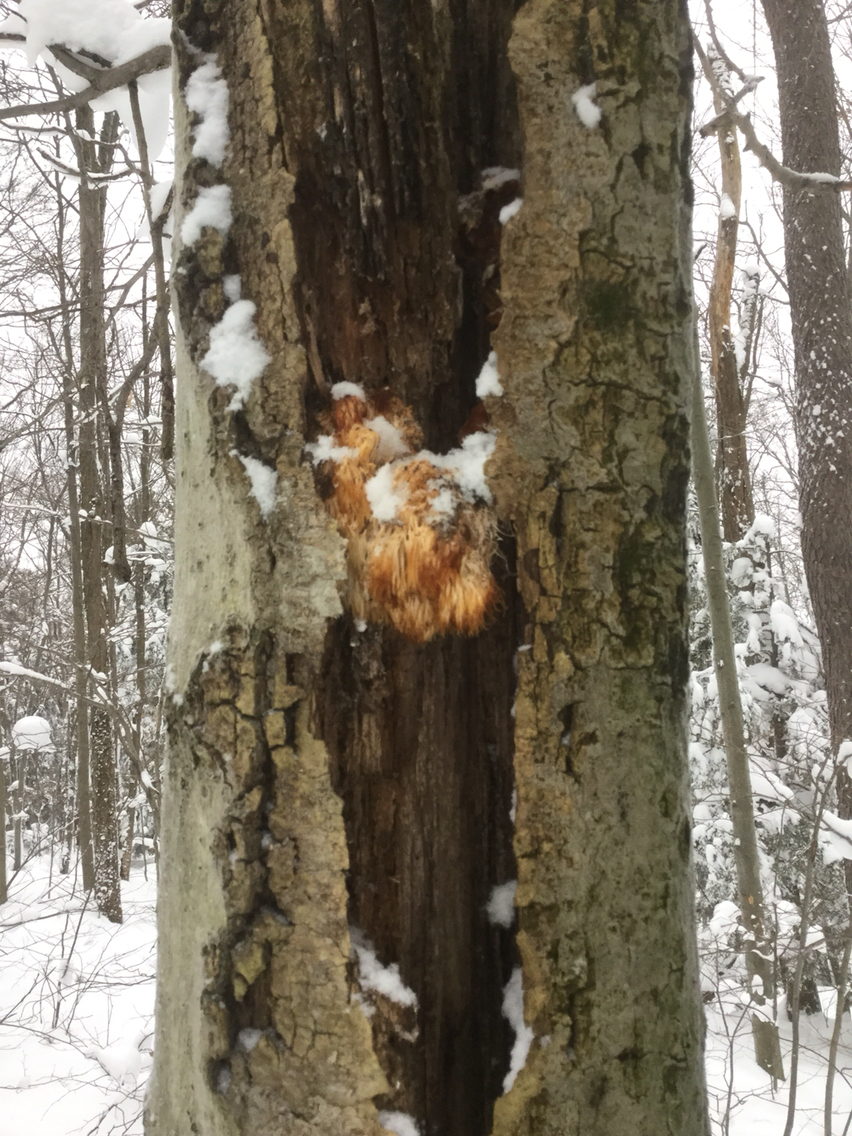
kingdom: Fungi
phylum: Basidiomycota
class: Agaricomycetes
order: Russulales
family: Hericiaceae
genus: Hericium
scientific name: Hericium americanum
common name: Bear's head tooth
